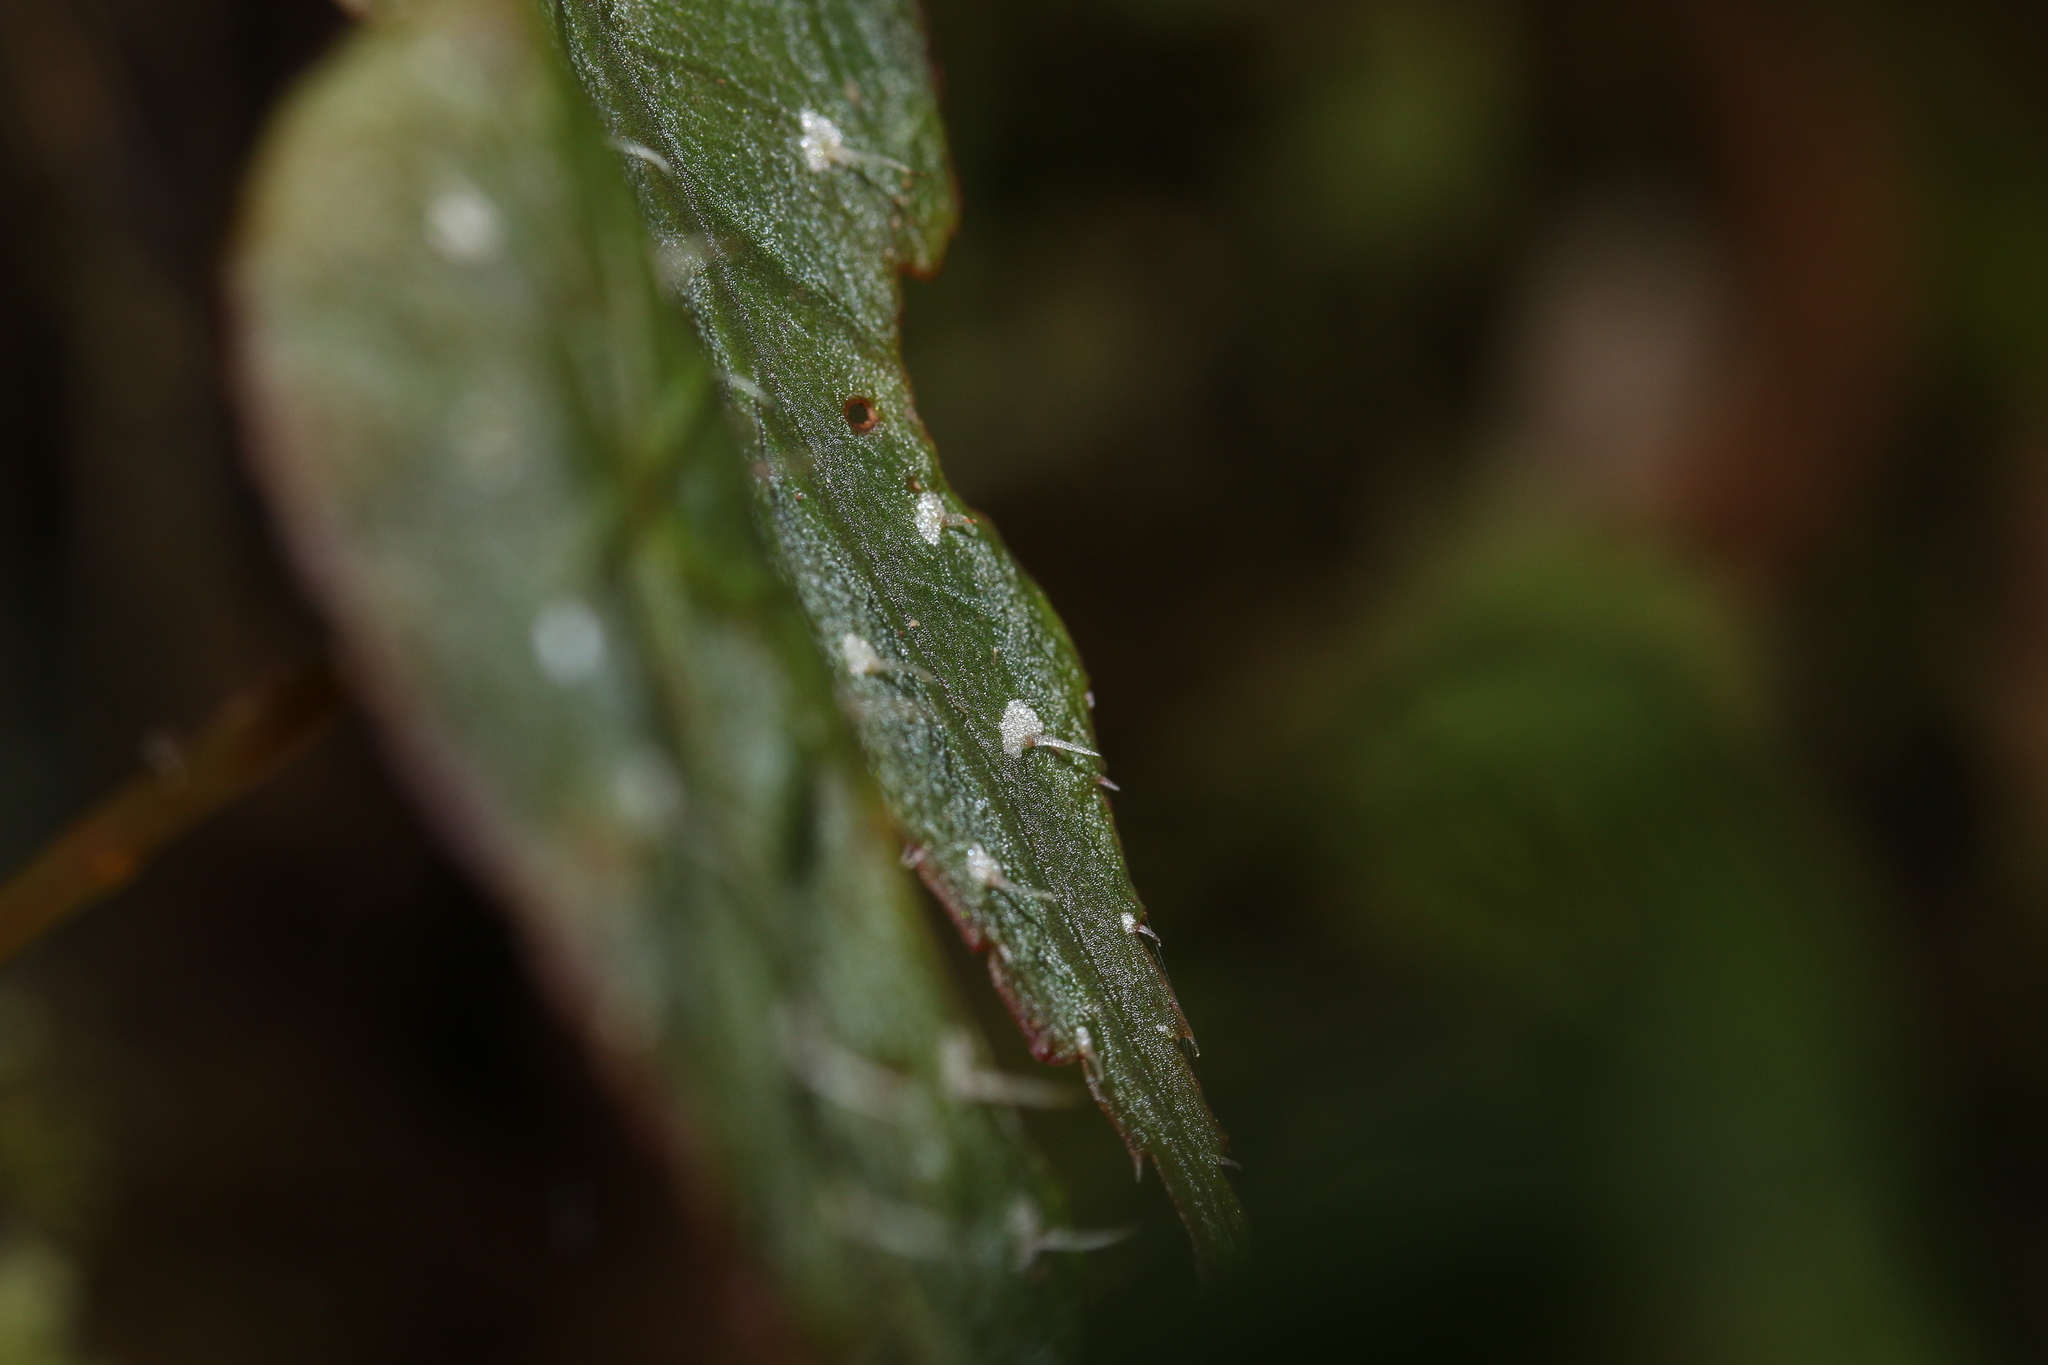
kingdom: Plantae
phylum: Tracheophyta
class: Magnoliopsida
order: Cucurbitales
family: Begoniaceae
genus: Begonia
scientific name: Begonia hitchcockii
